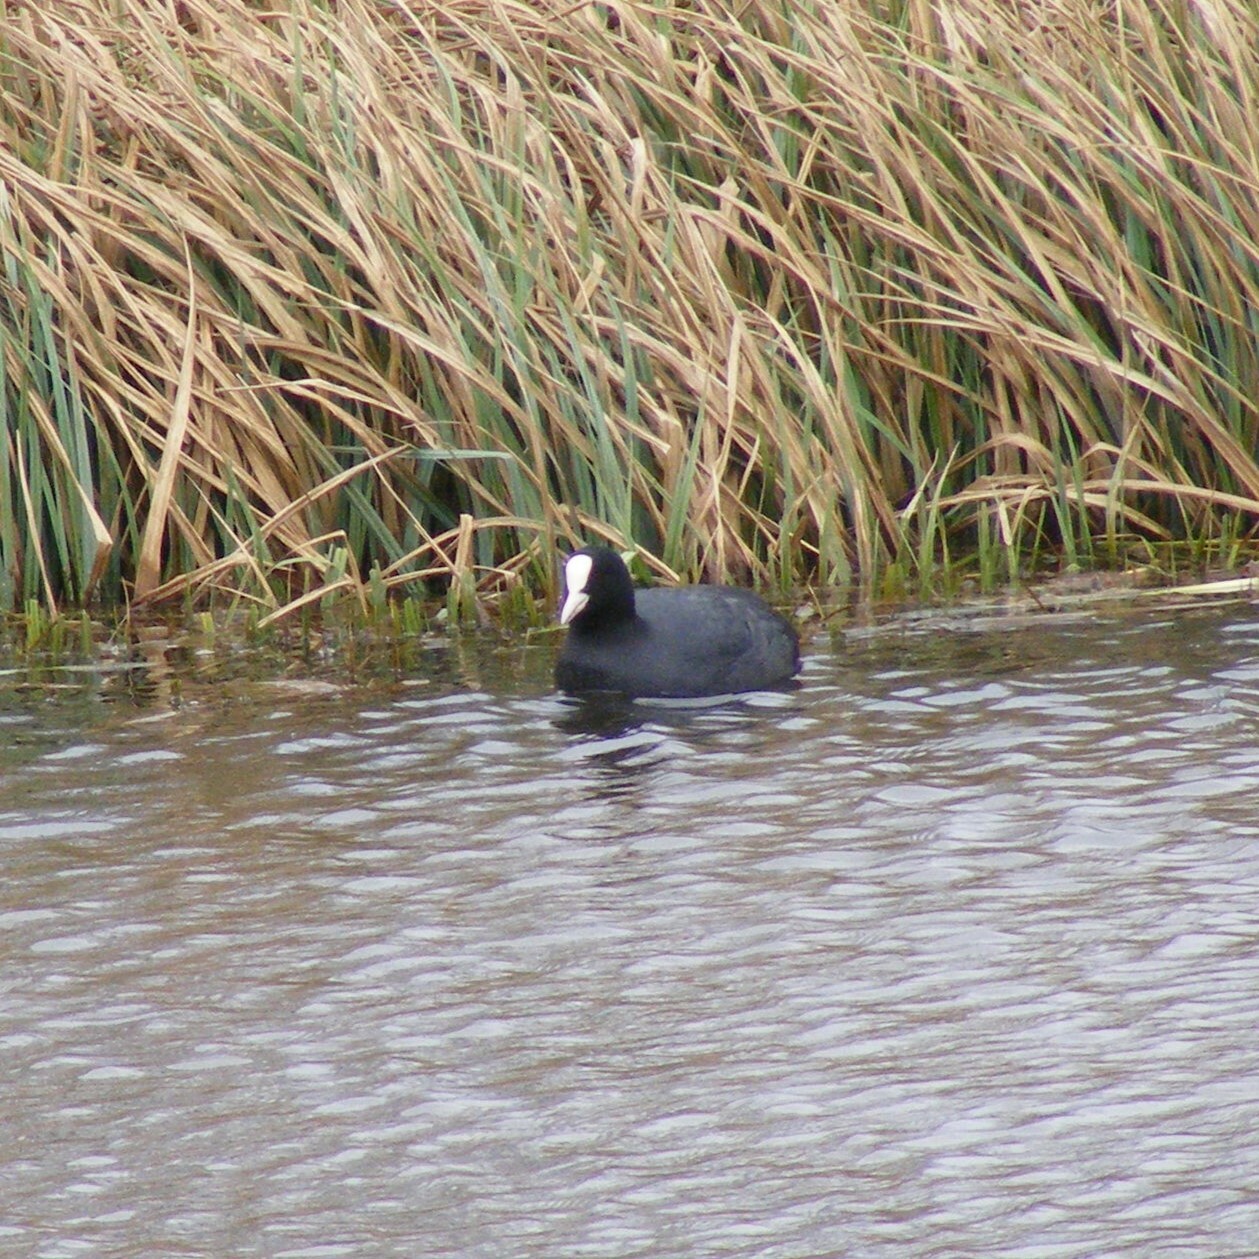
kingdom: Animalia
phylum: Chordata
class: Aves
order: Gruiformes
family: Rallidae
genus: Fulica
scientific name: Fulica atra
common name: Eurasian coot
